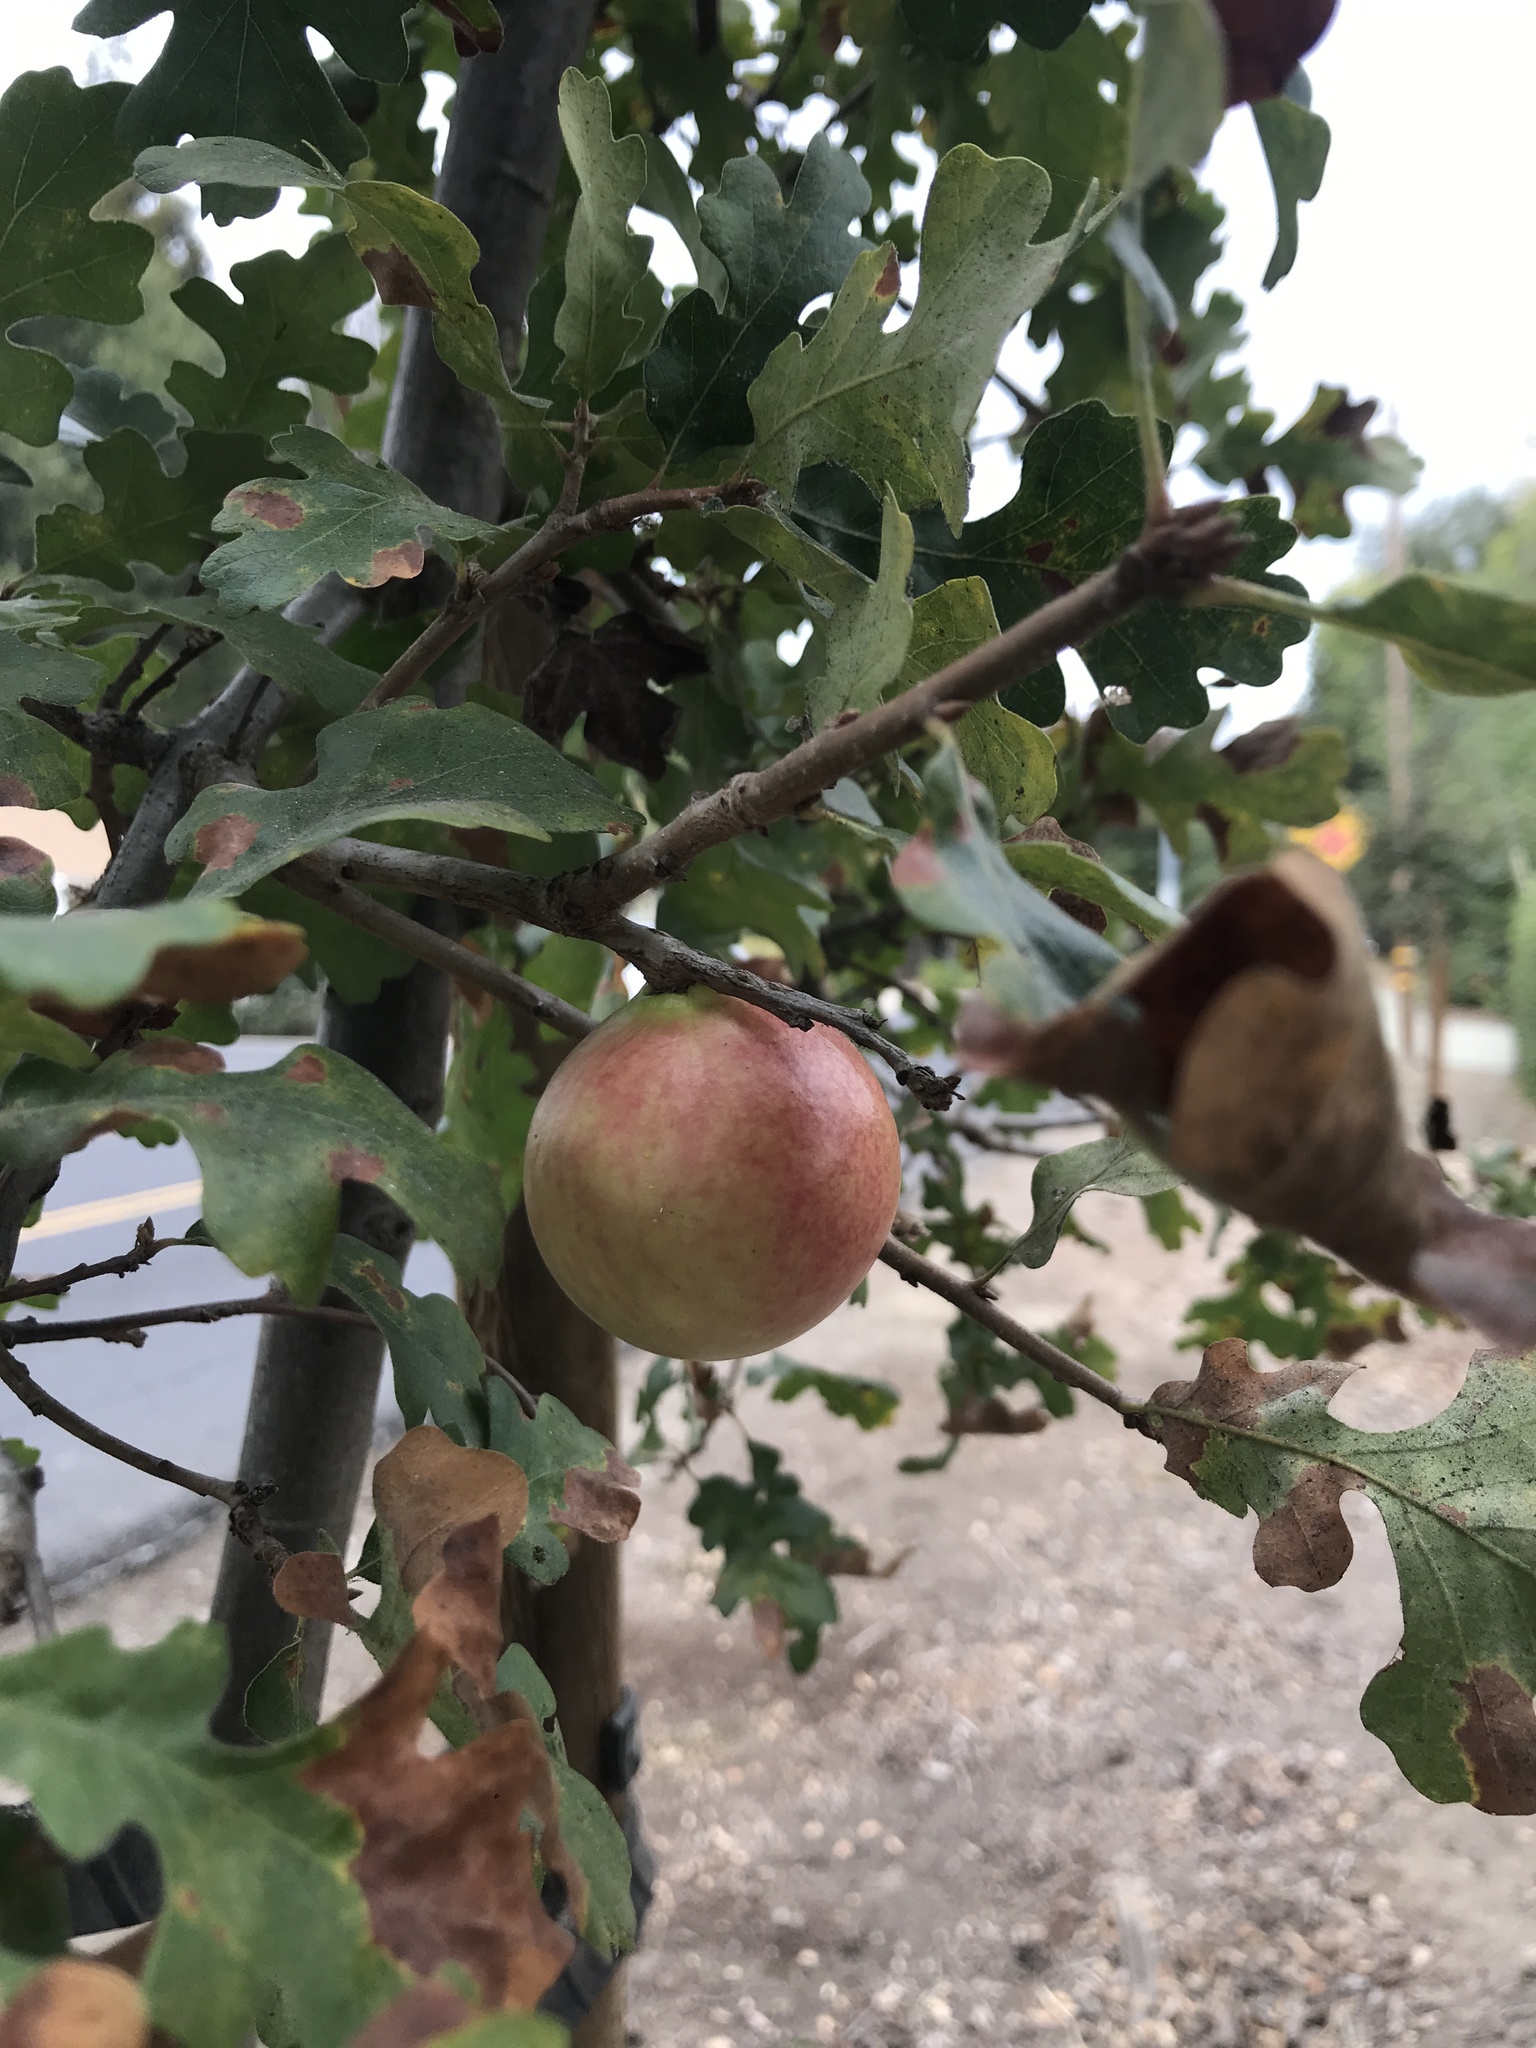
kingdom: Animalia
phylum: Arthropoda
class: Insecta
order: Hymenoptera
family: Cynipidae
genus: Andricus
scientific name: Andricus quercuscalifornicus
